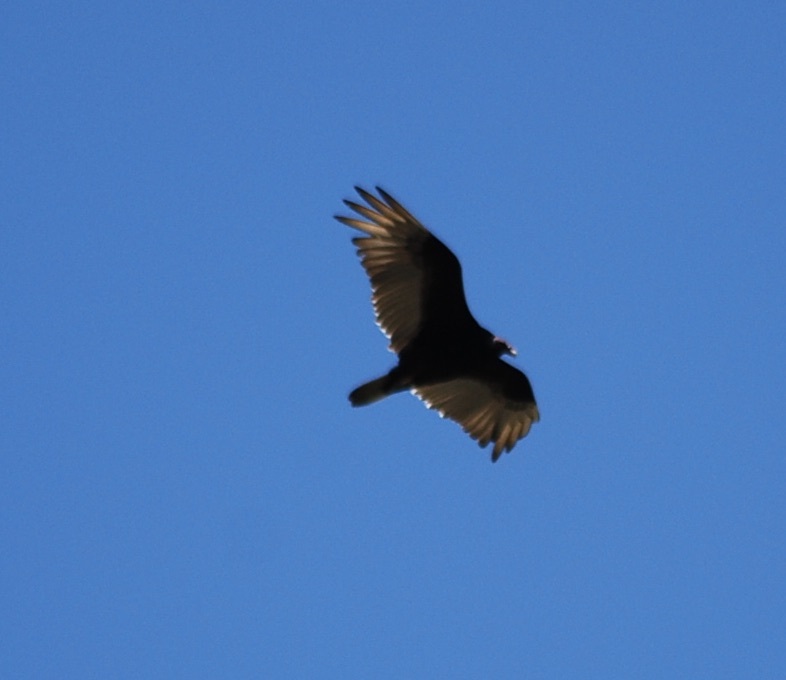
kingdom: Animalia
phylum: Chordata
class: Aves
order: Accipitriformes
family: Cathartidae
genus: Cathartes
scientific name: Cathartes aura
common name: Turkey vulture
